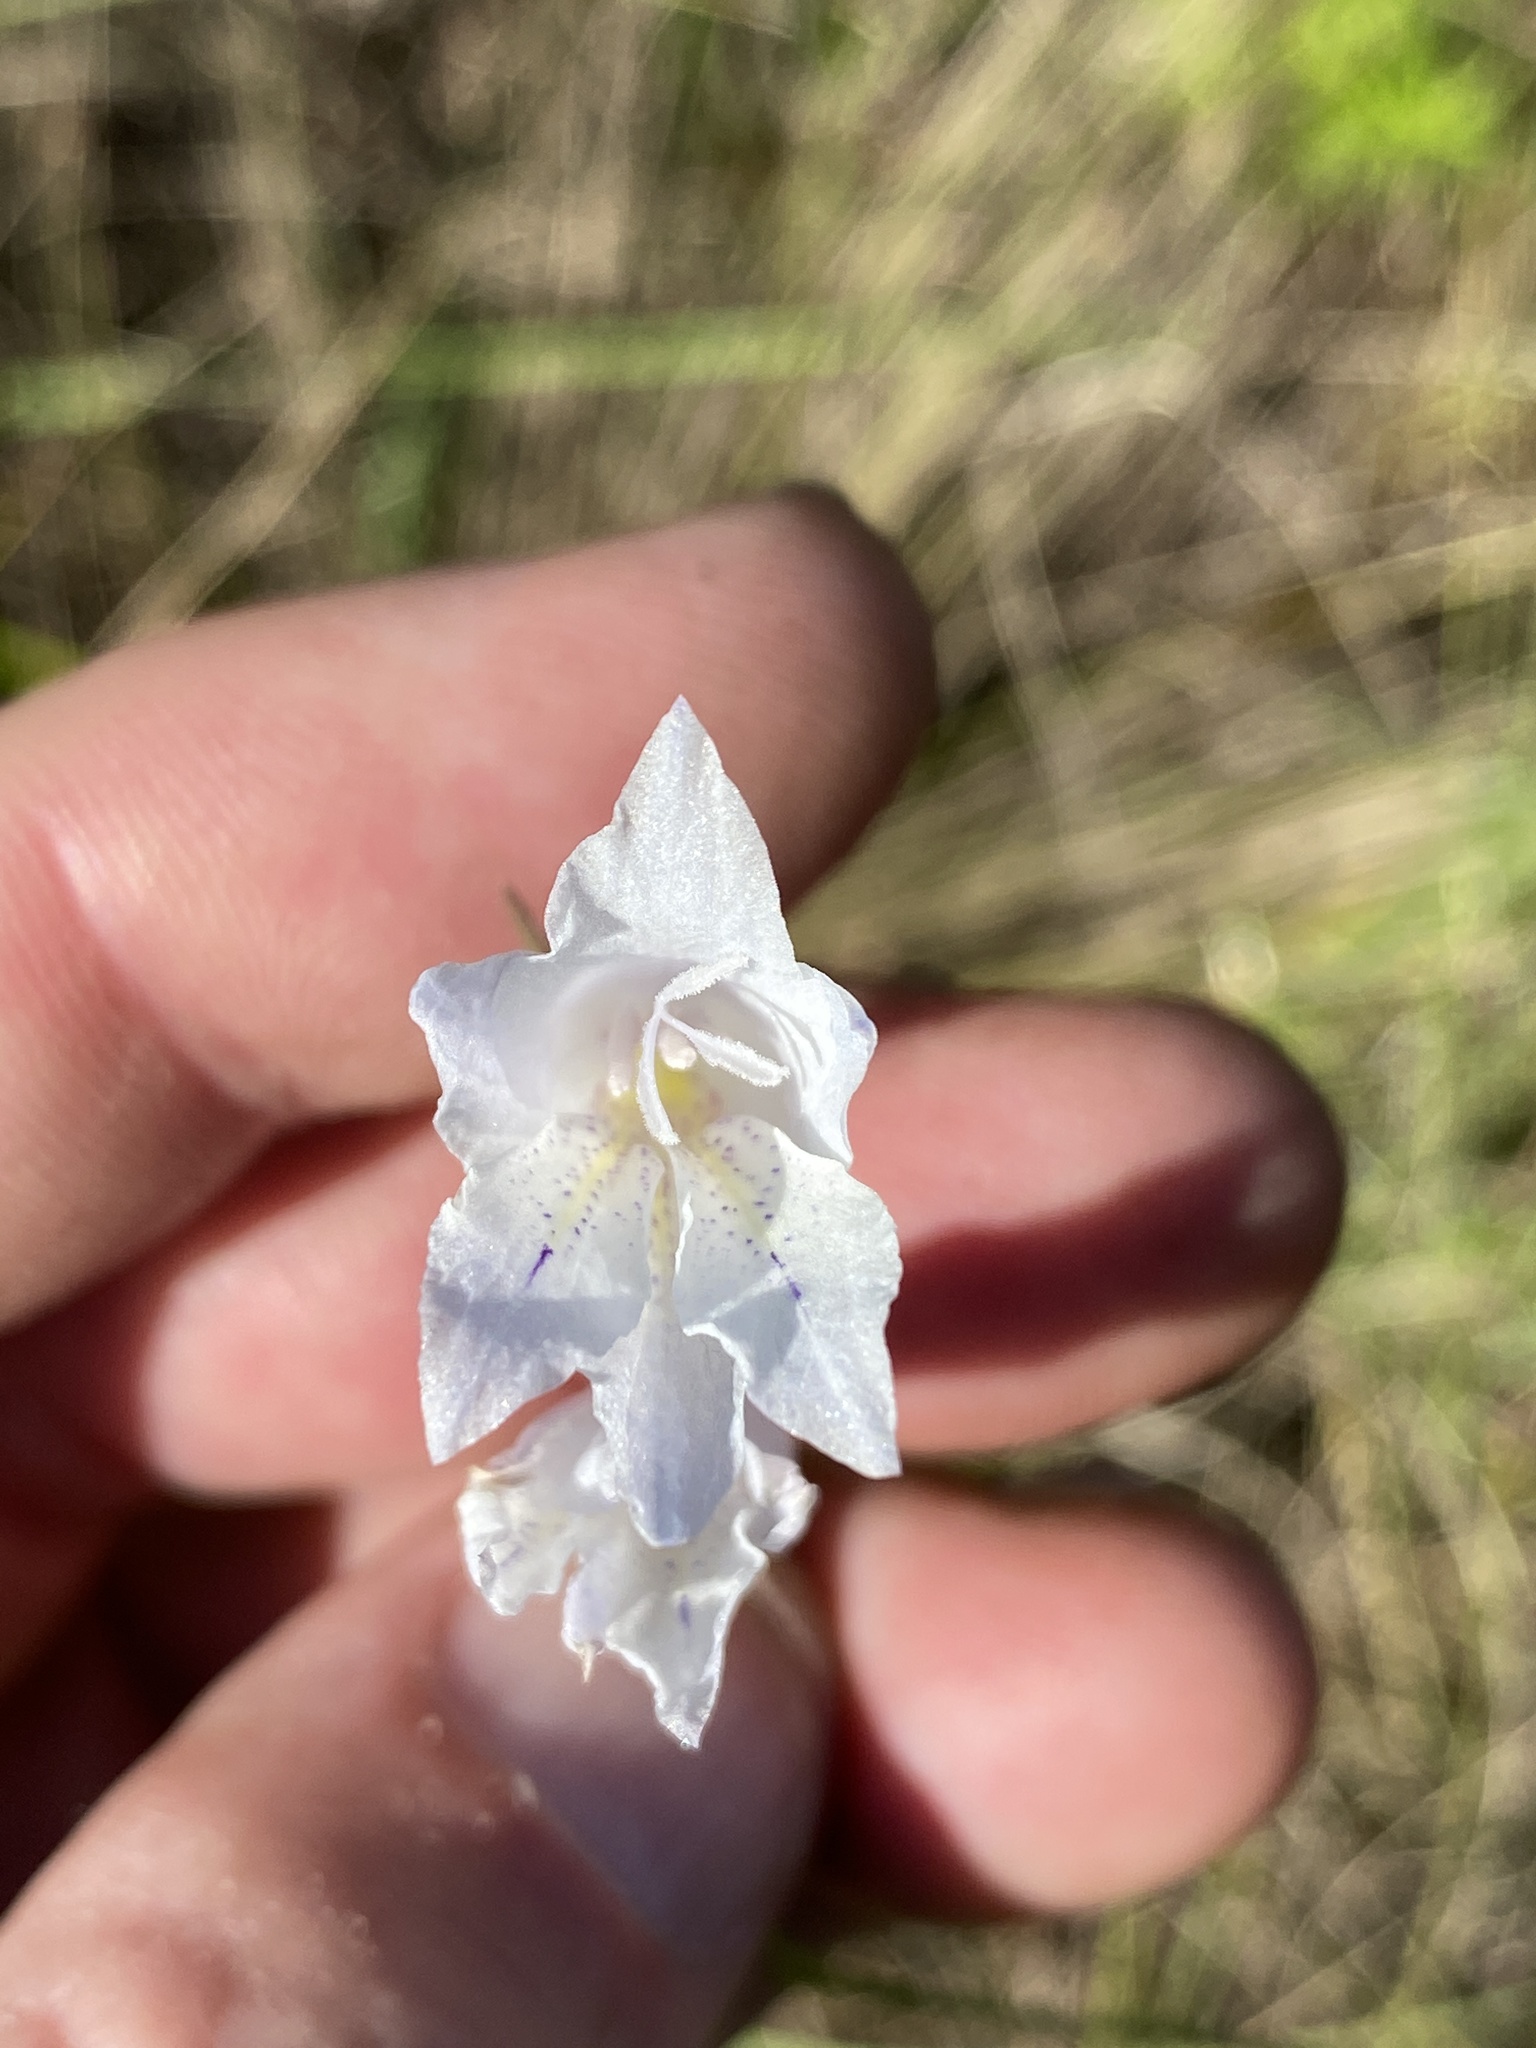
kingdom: Plantae
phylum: Tracheophyta
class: Liliopsida
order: Asparagales
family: Iridaceae
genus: Gladiolus
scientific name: Gladiolus vaginatus
